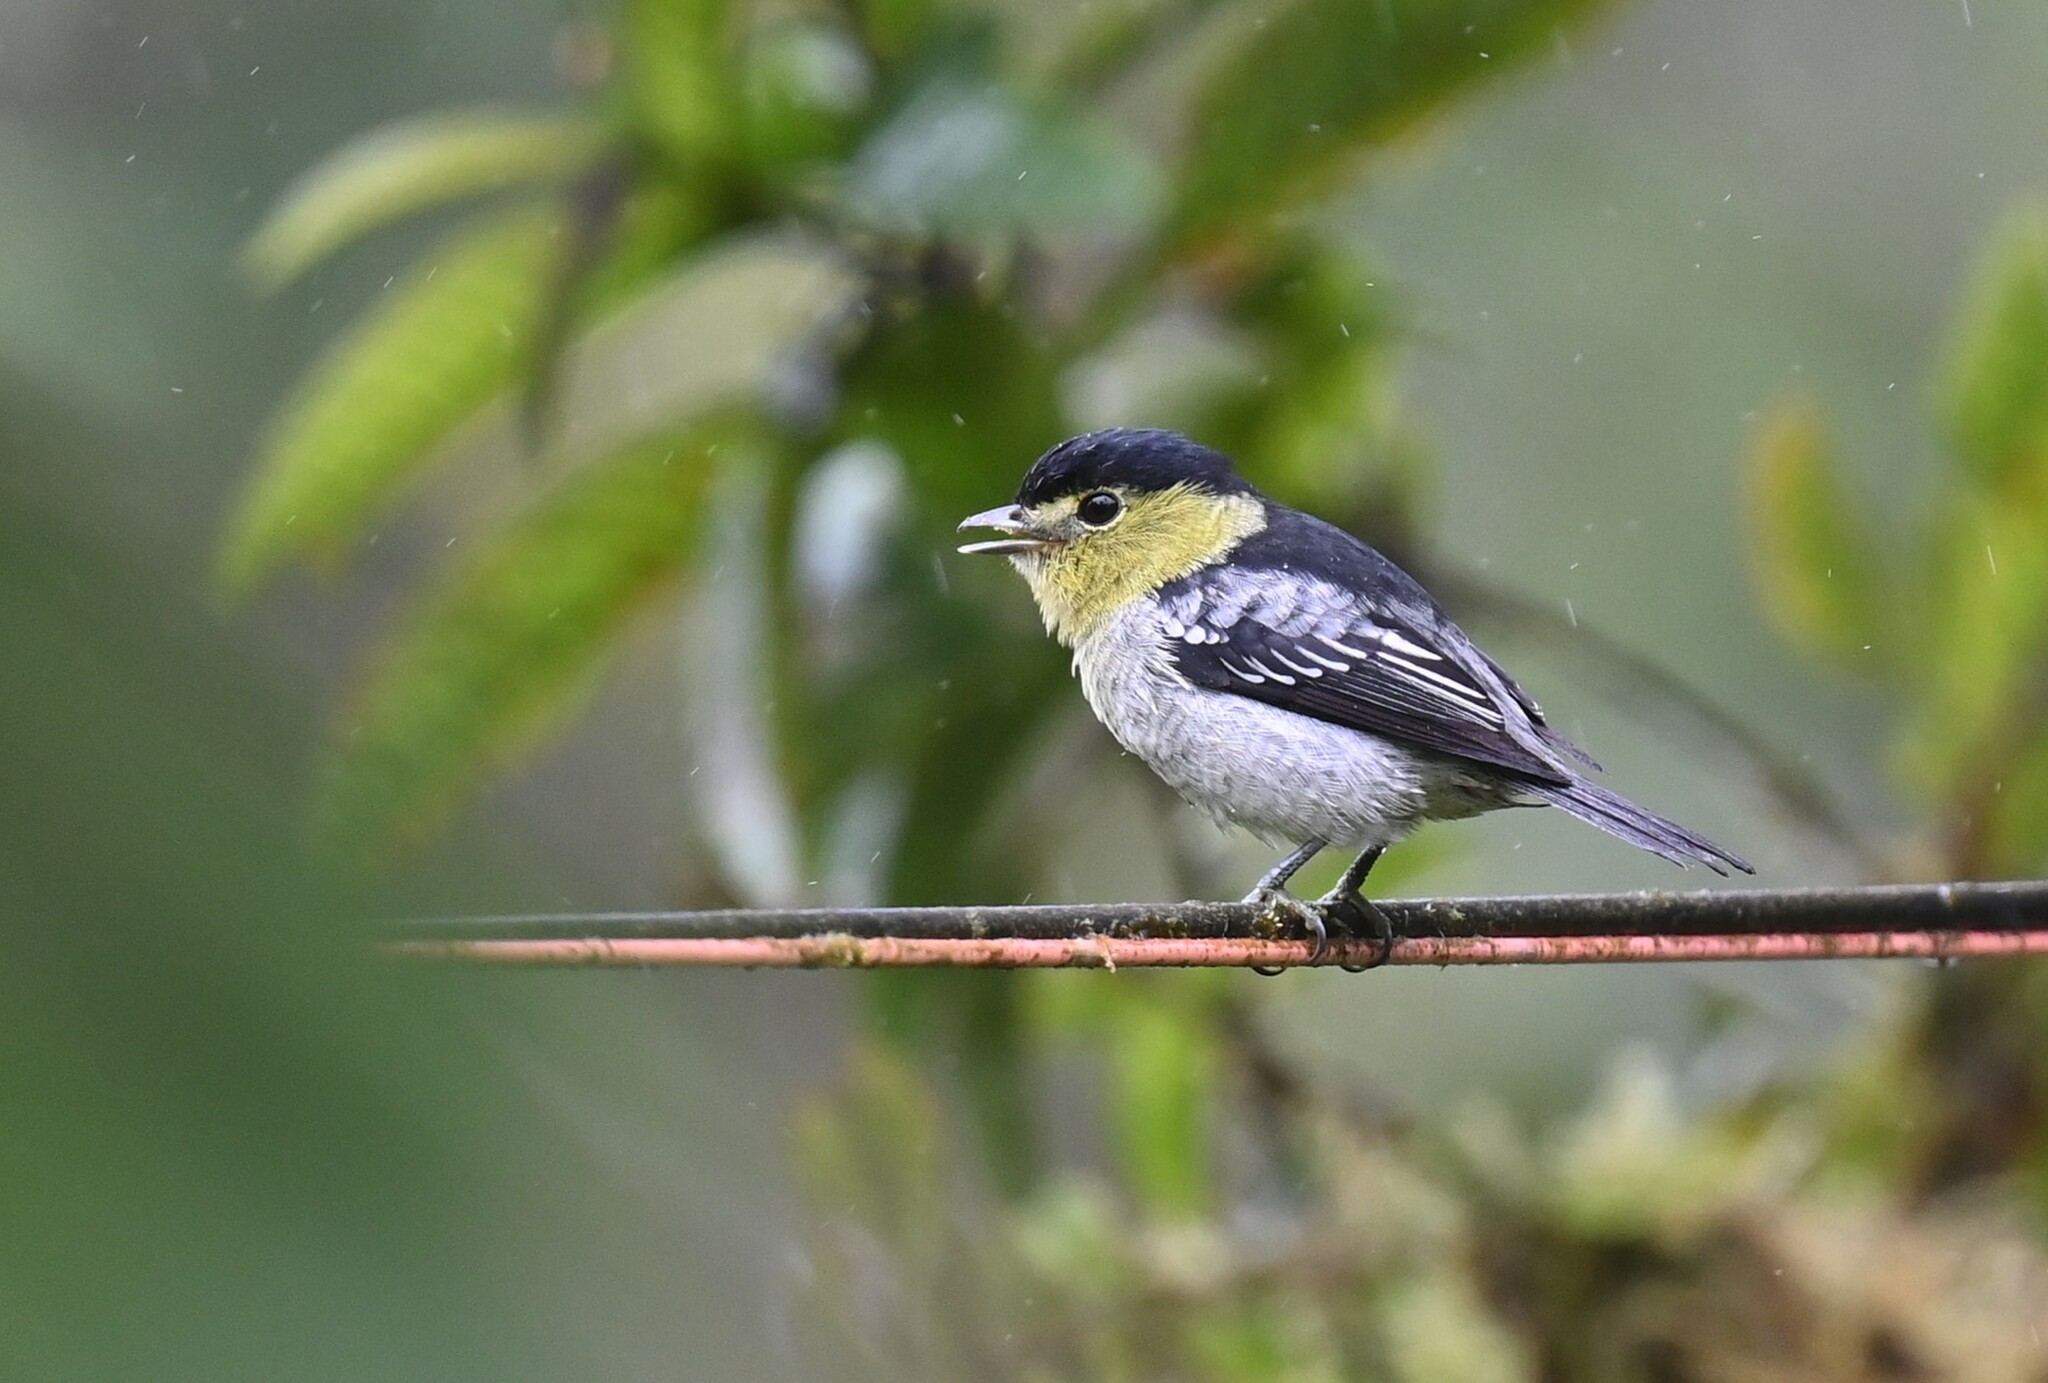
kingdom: Animalia
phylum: Chordata
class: Aves
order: Passeriformes
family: Cotingidae
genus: Pachyramphus
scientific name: Pachyramphus versicolor
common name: Barred becard
